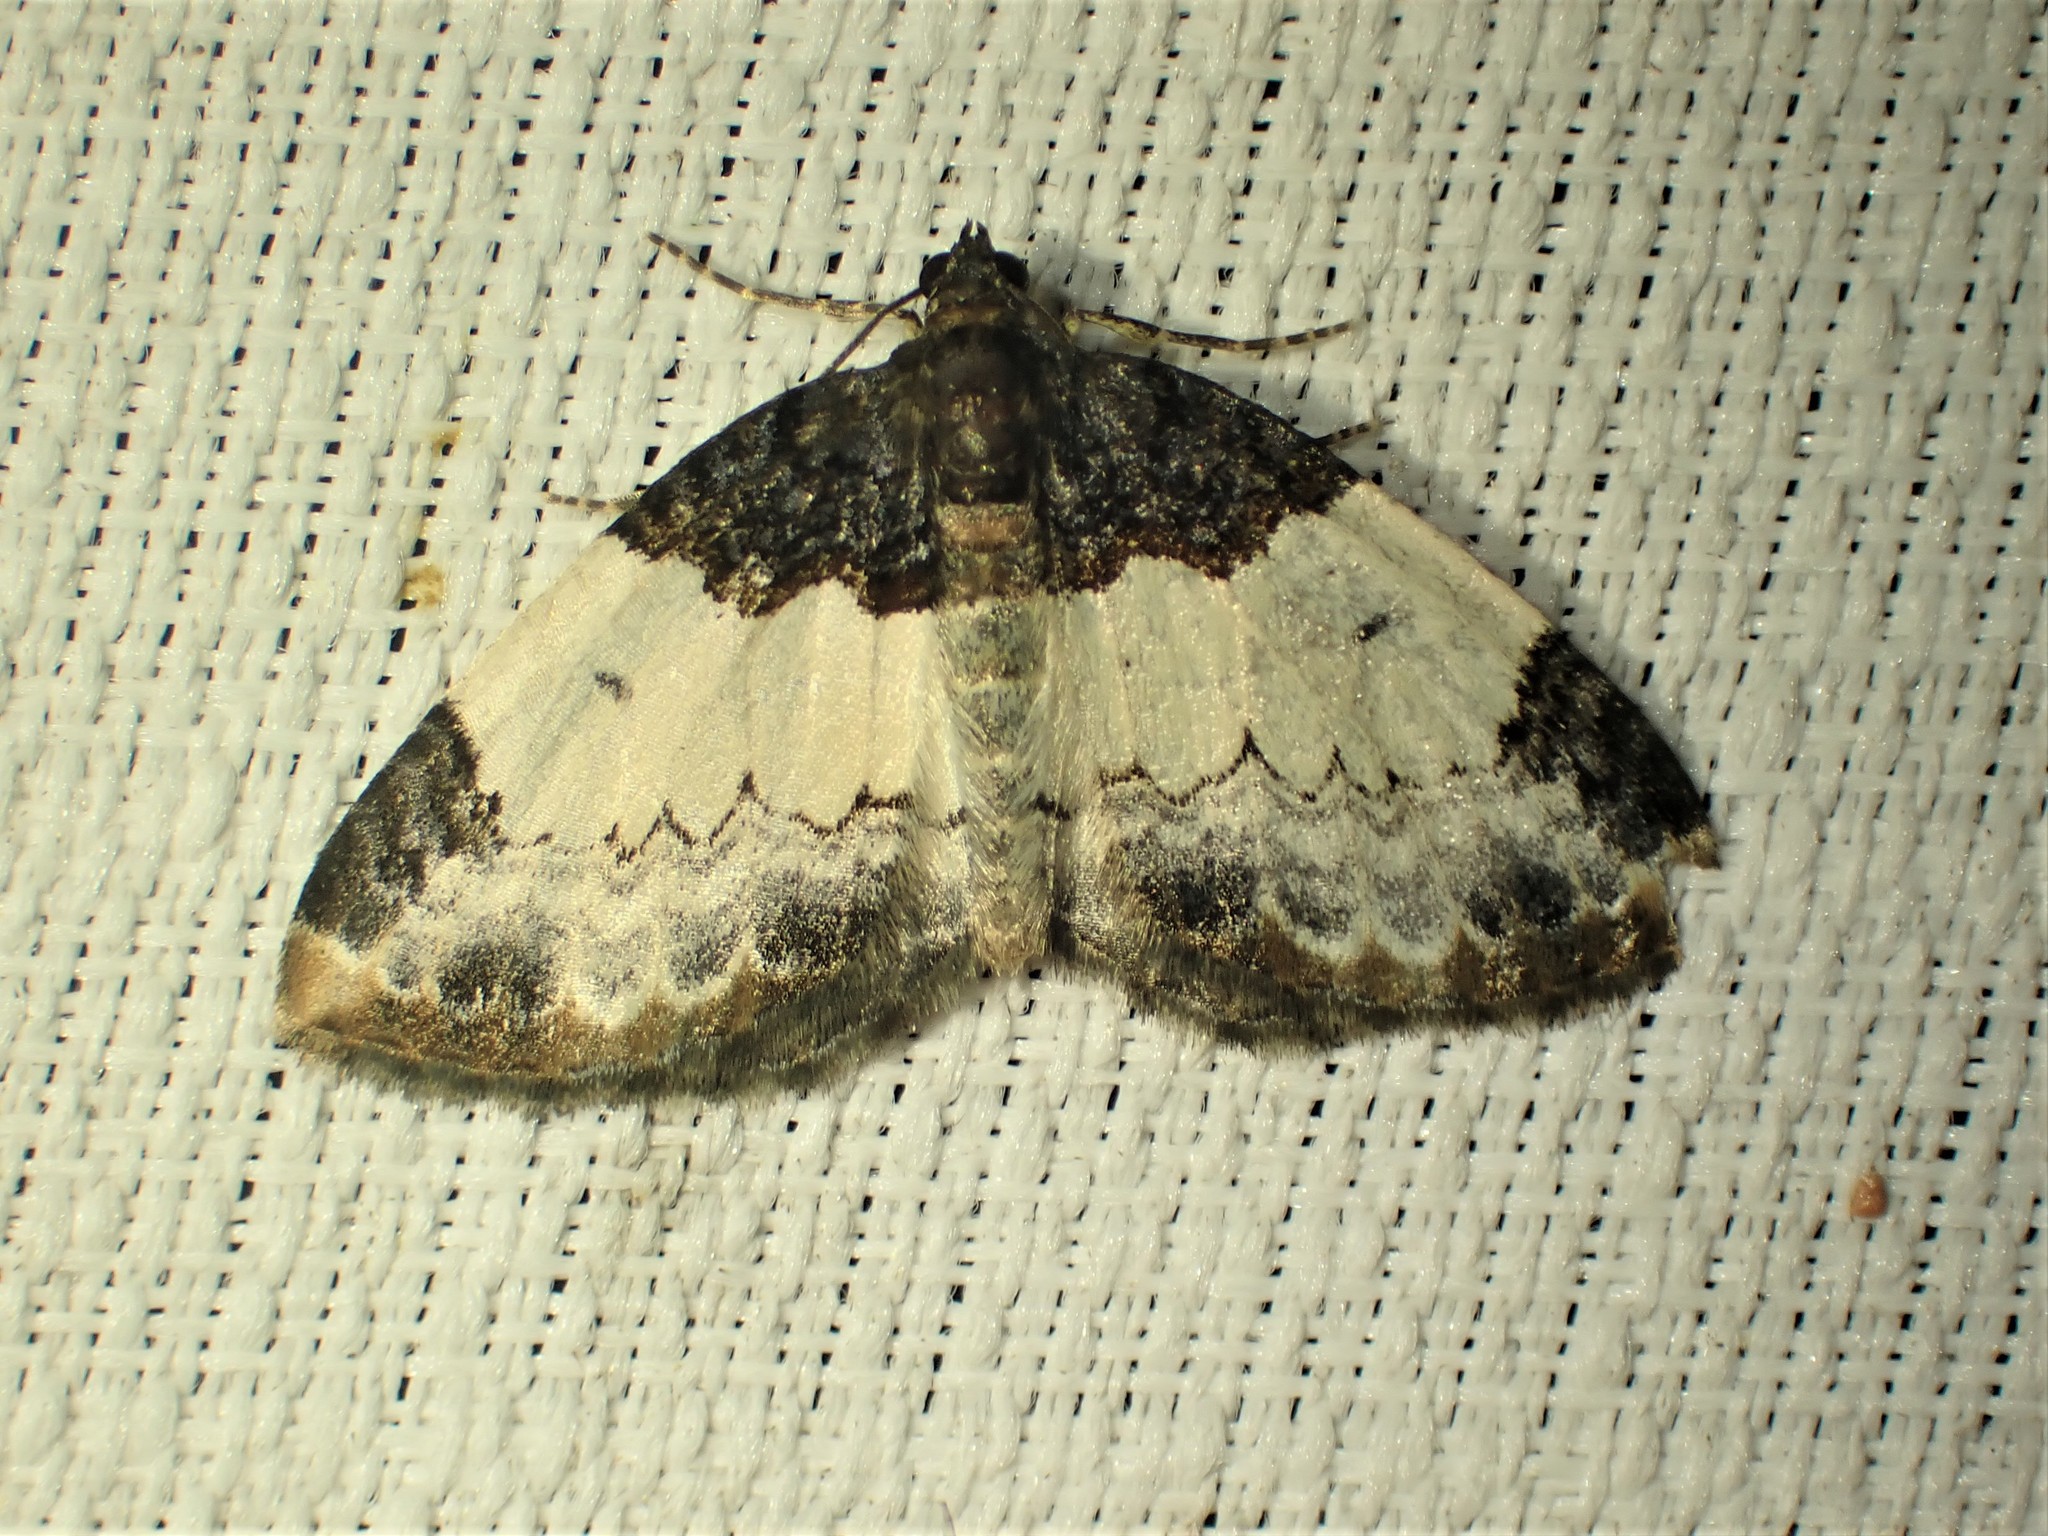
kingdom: Animalia
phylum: Arthropoda
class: Insecta
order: Lepidoptera
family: Geometridae
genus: Mesoleuca
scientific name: Mesoleuca ruficillata
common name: White-ribboned carpet moth
